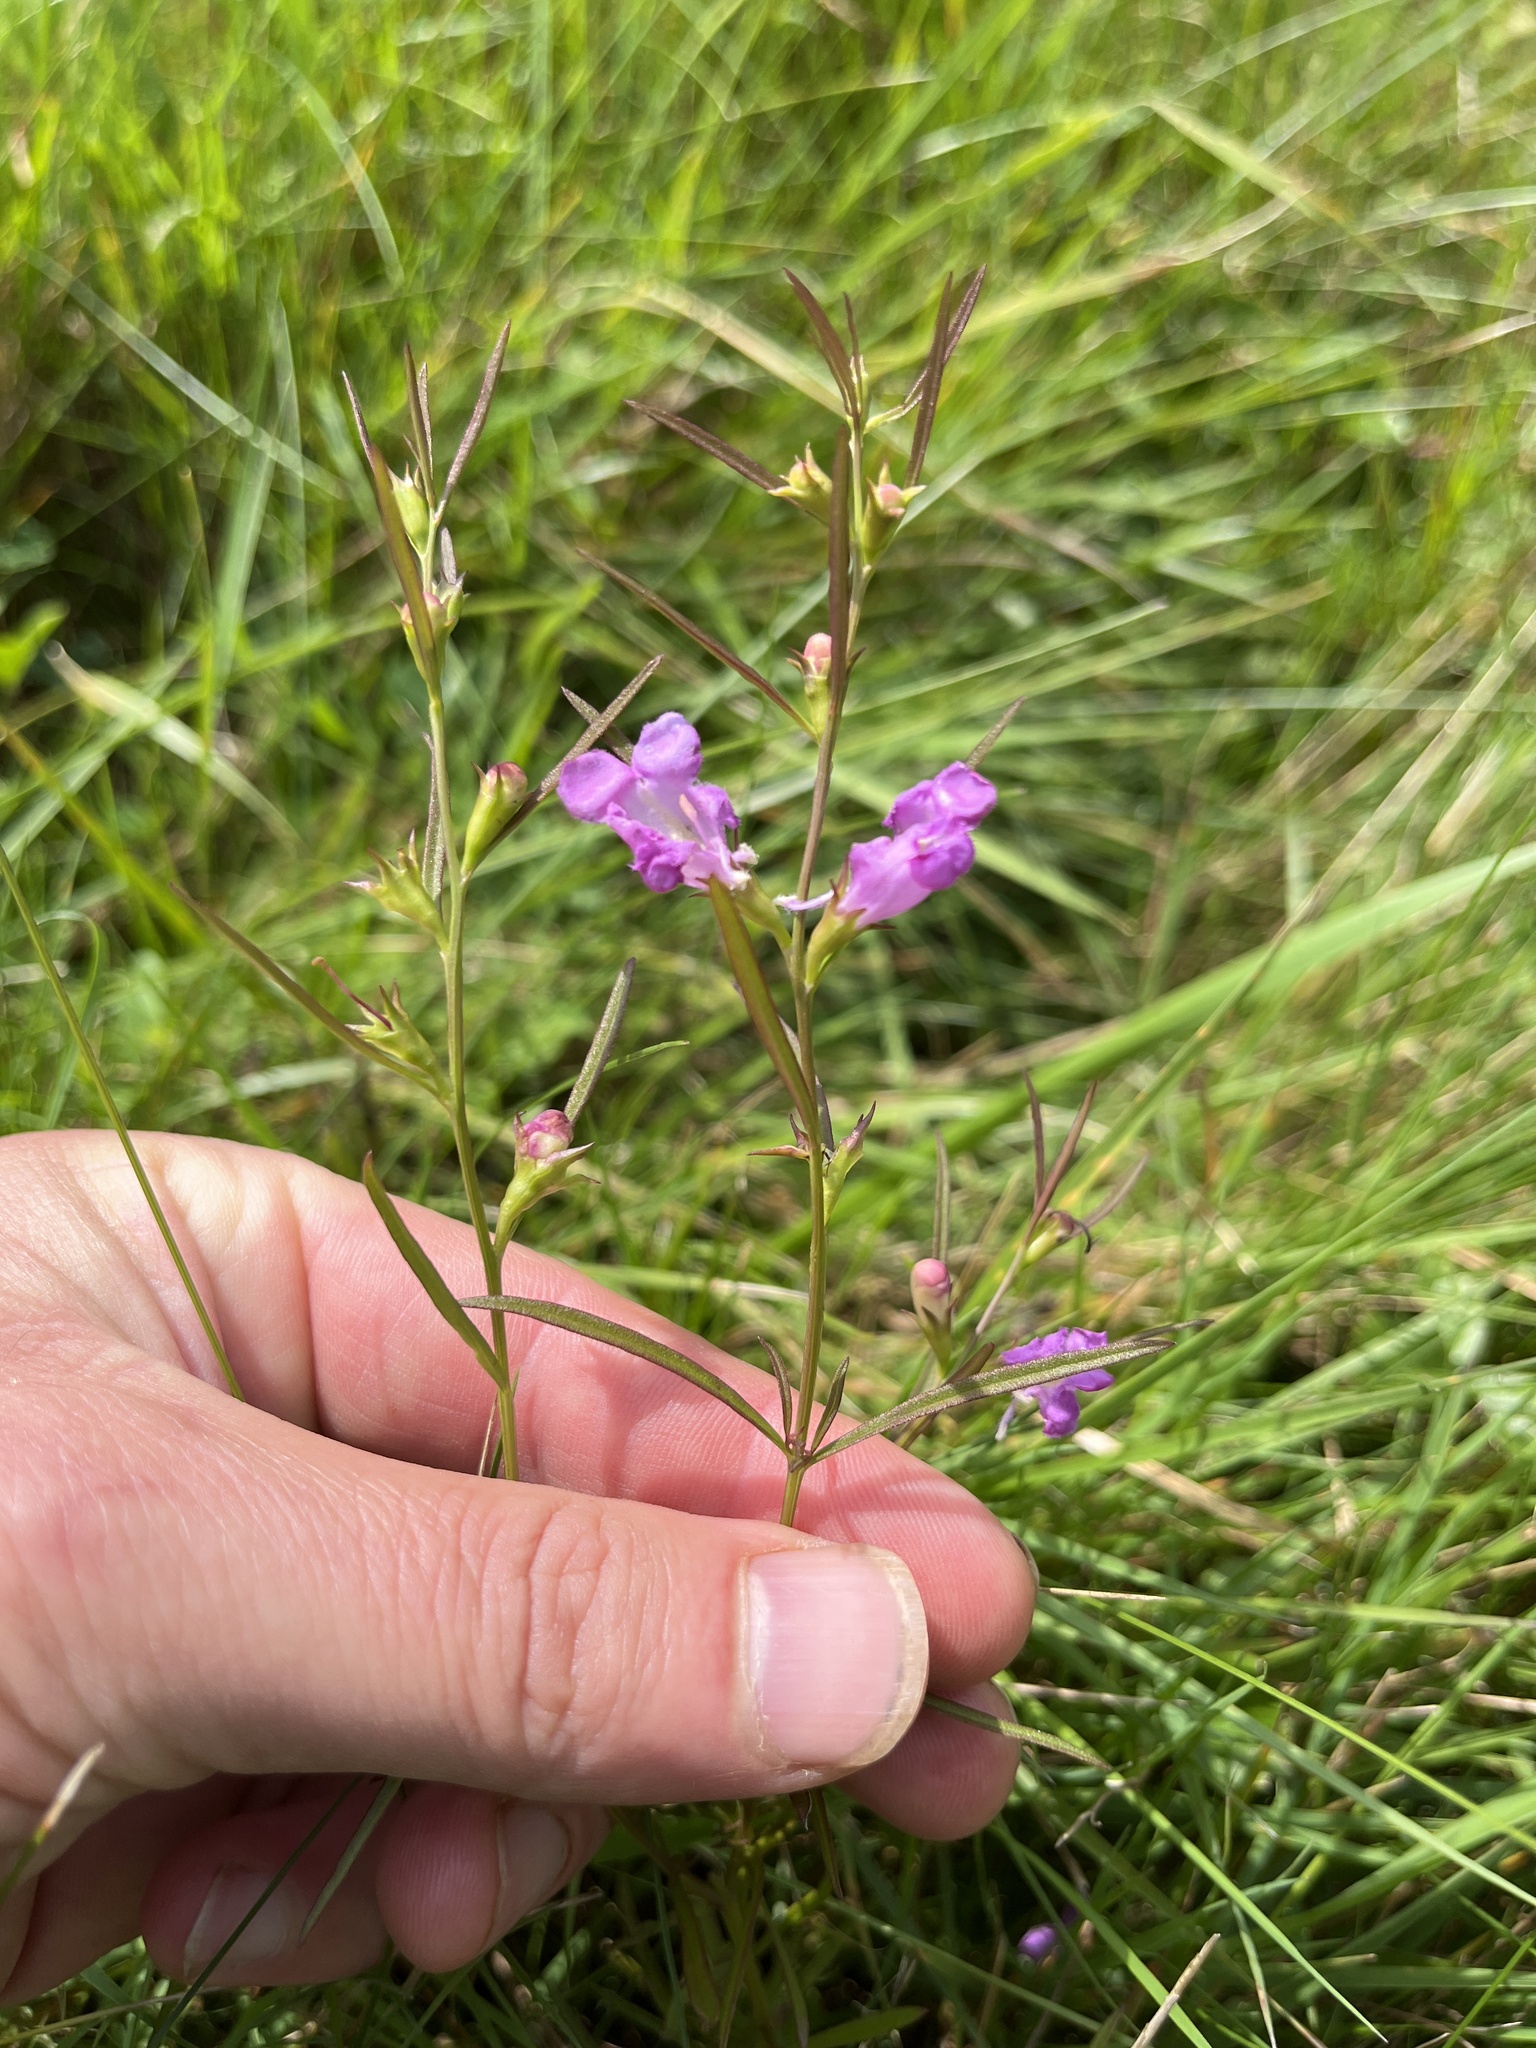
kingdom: Plantae
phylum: Tracheophyta
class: Magnoliopsida
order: Lamiales
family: Orobanchaceae
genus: Agalinis
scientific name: Agalinis purpurea
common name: Purple false foxglove
